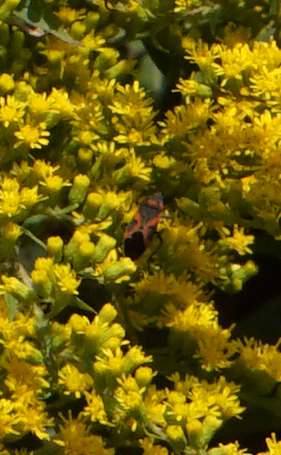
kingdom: Animalia
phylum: Arthropoda
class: Insecta
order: Hemiptera
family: Lygaeidae
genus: Lygaeus
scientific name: Lygaeus kalmii
